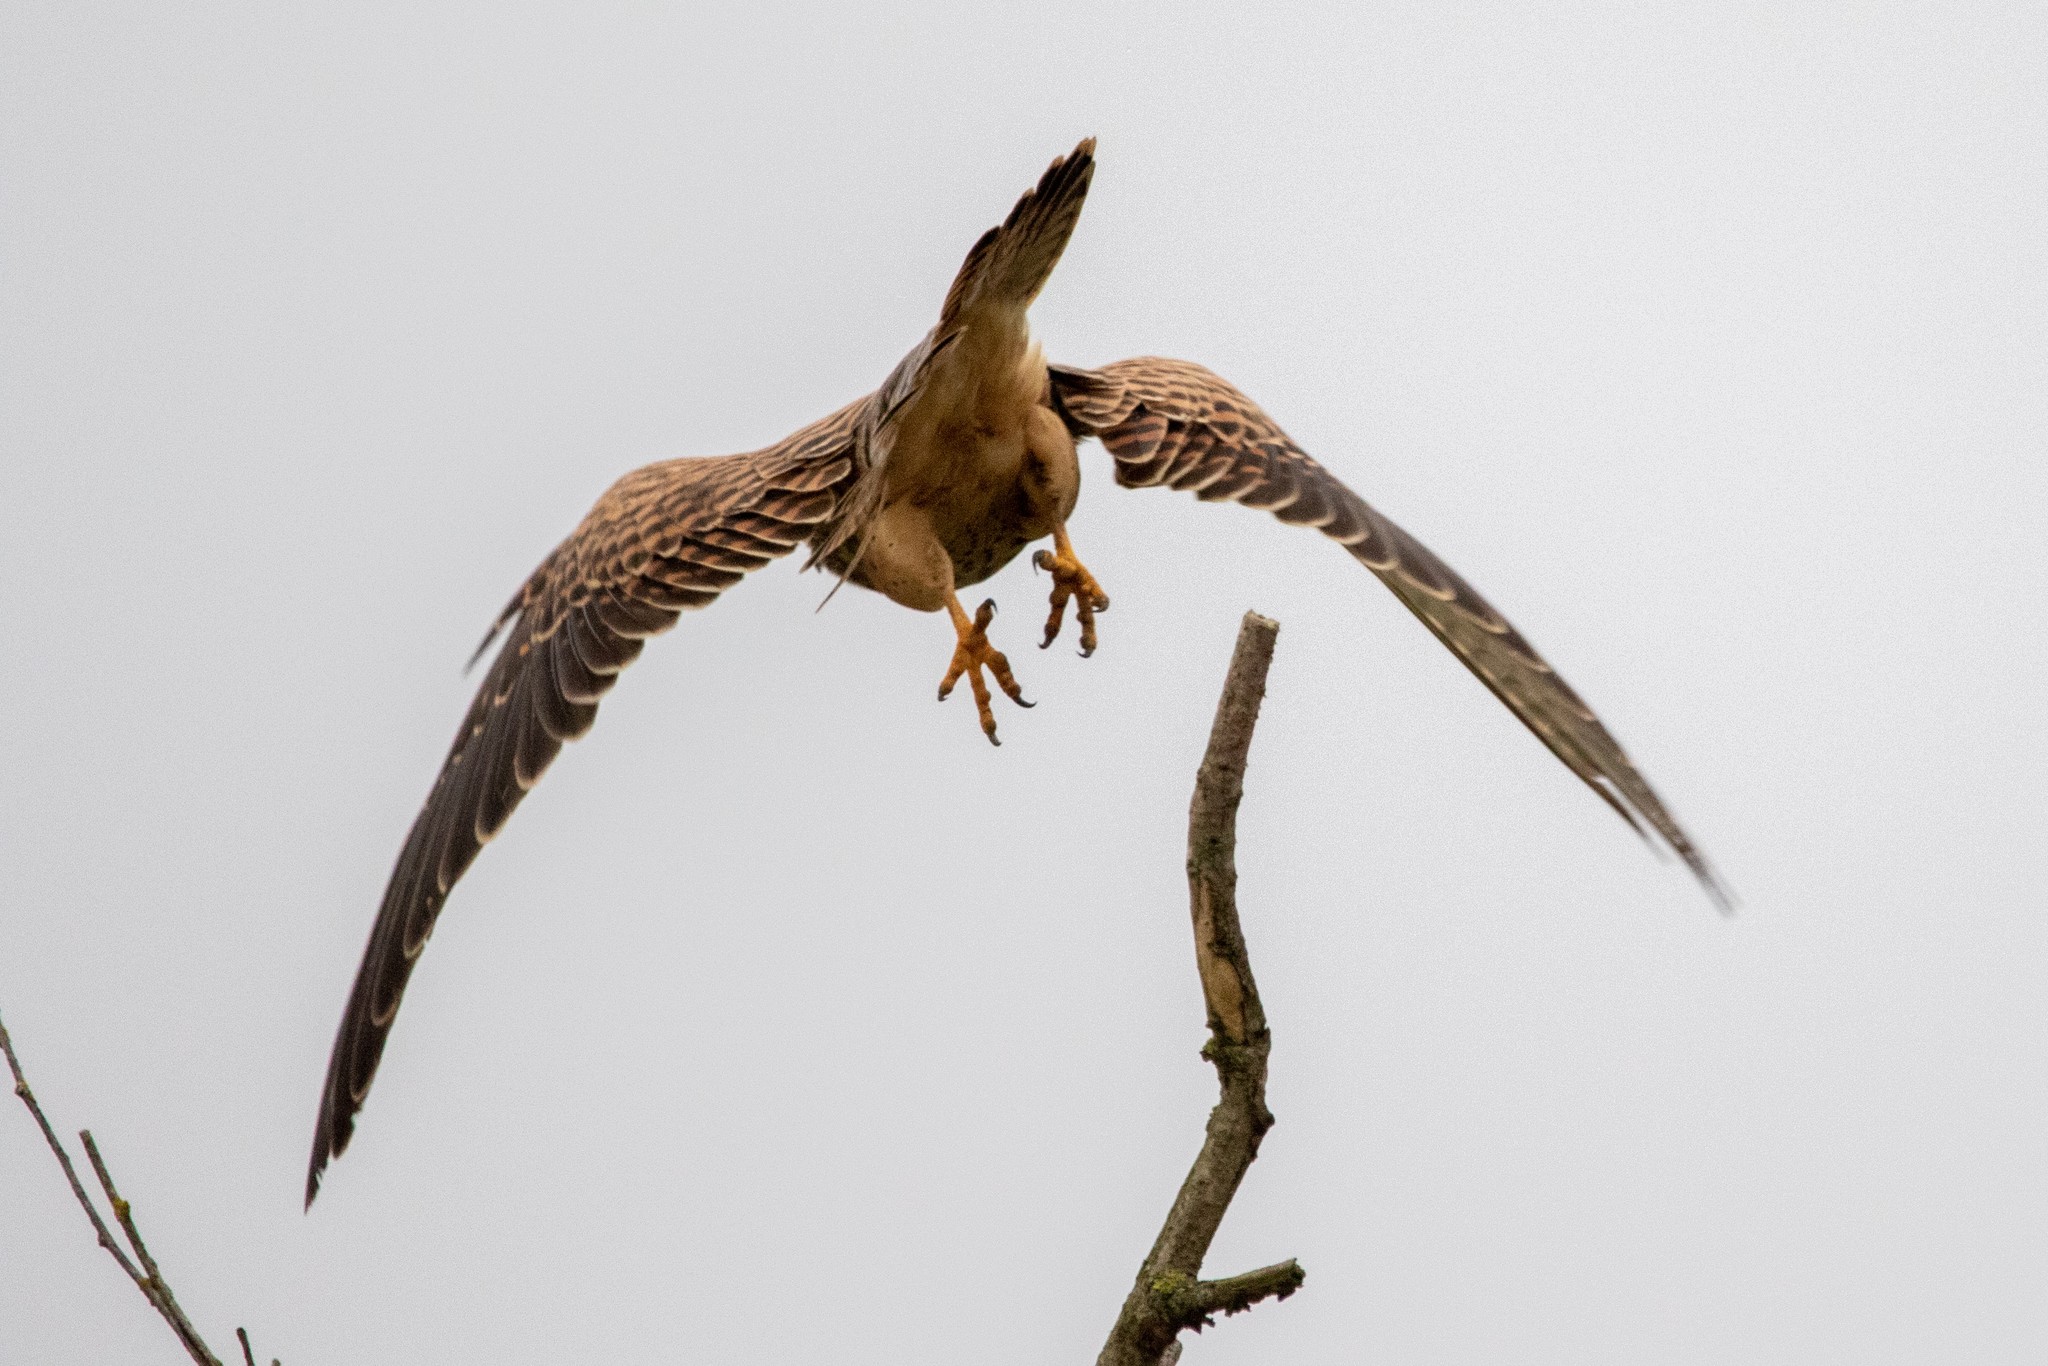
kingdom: Animalia
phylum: Chordata
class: Aves
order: Falconiformes
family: Falconidae
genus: Falco
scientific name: Falco tinnunculus
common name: Common kestrel
